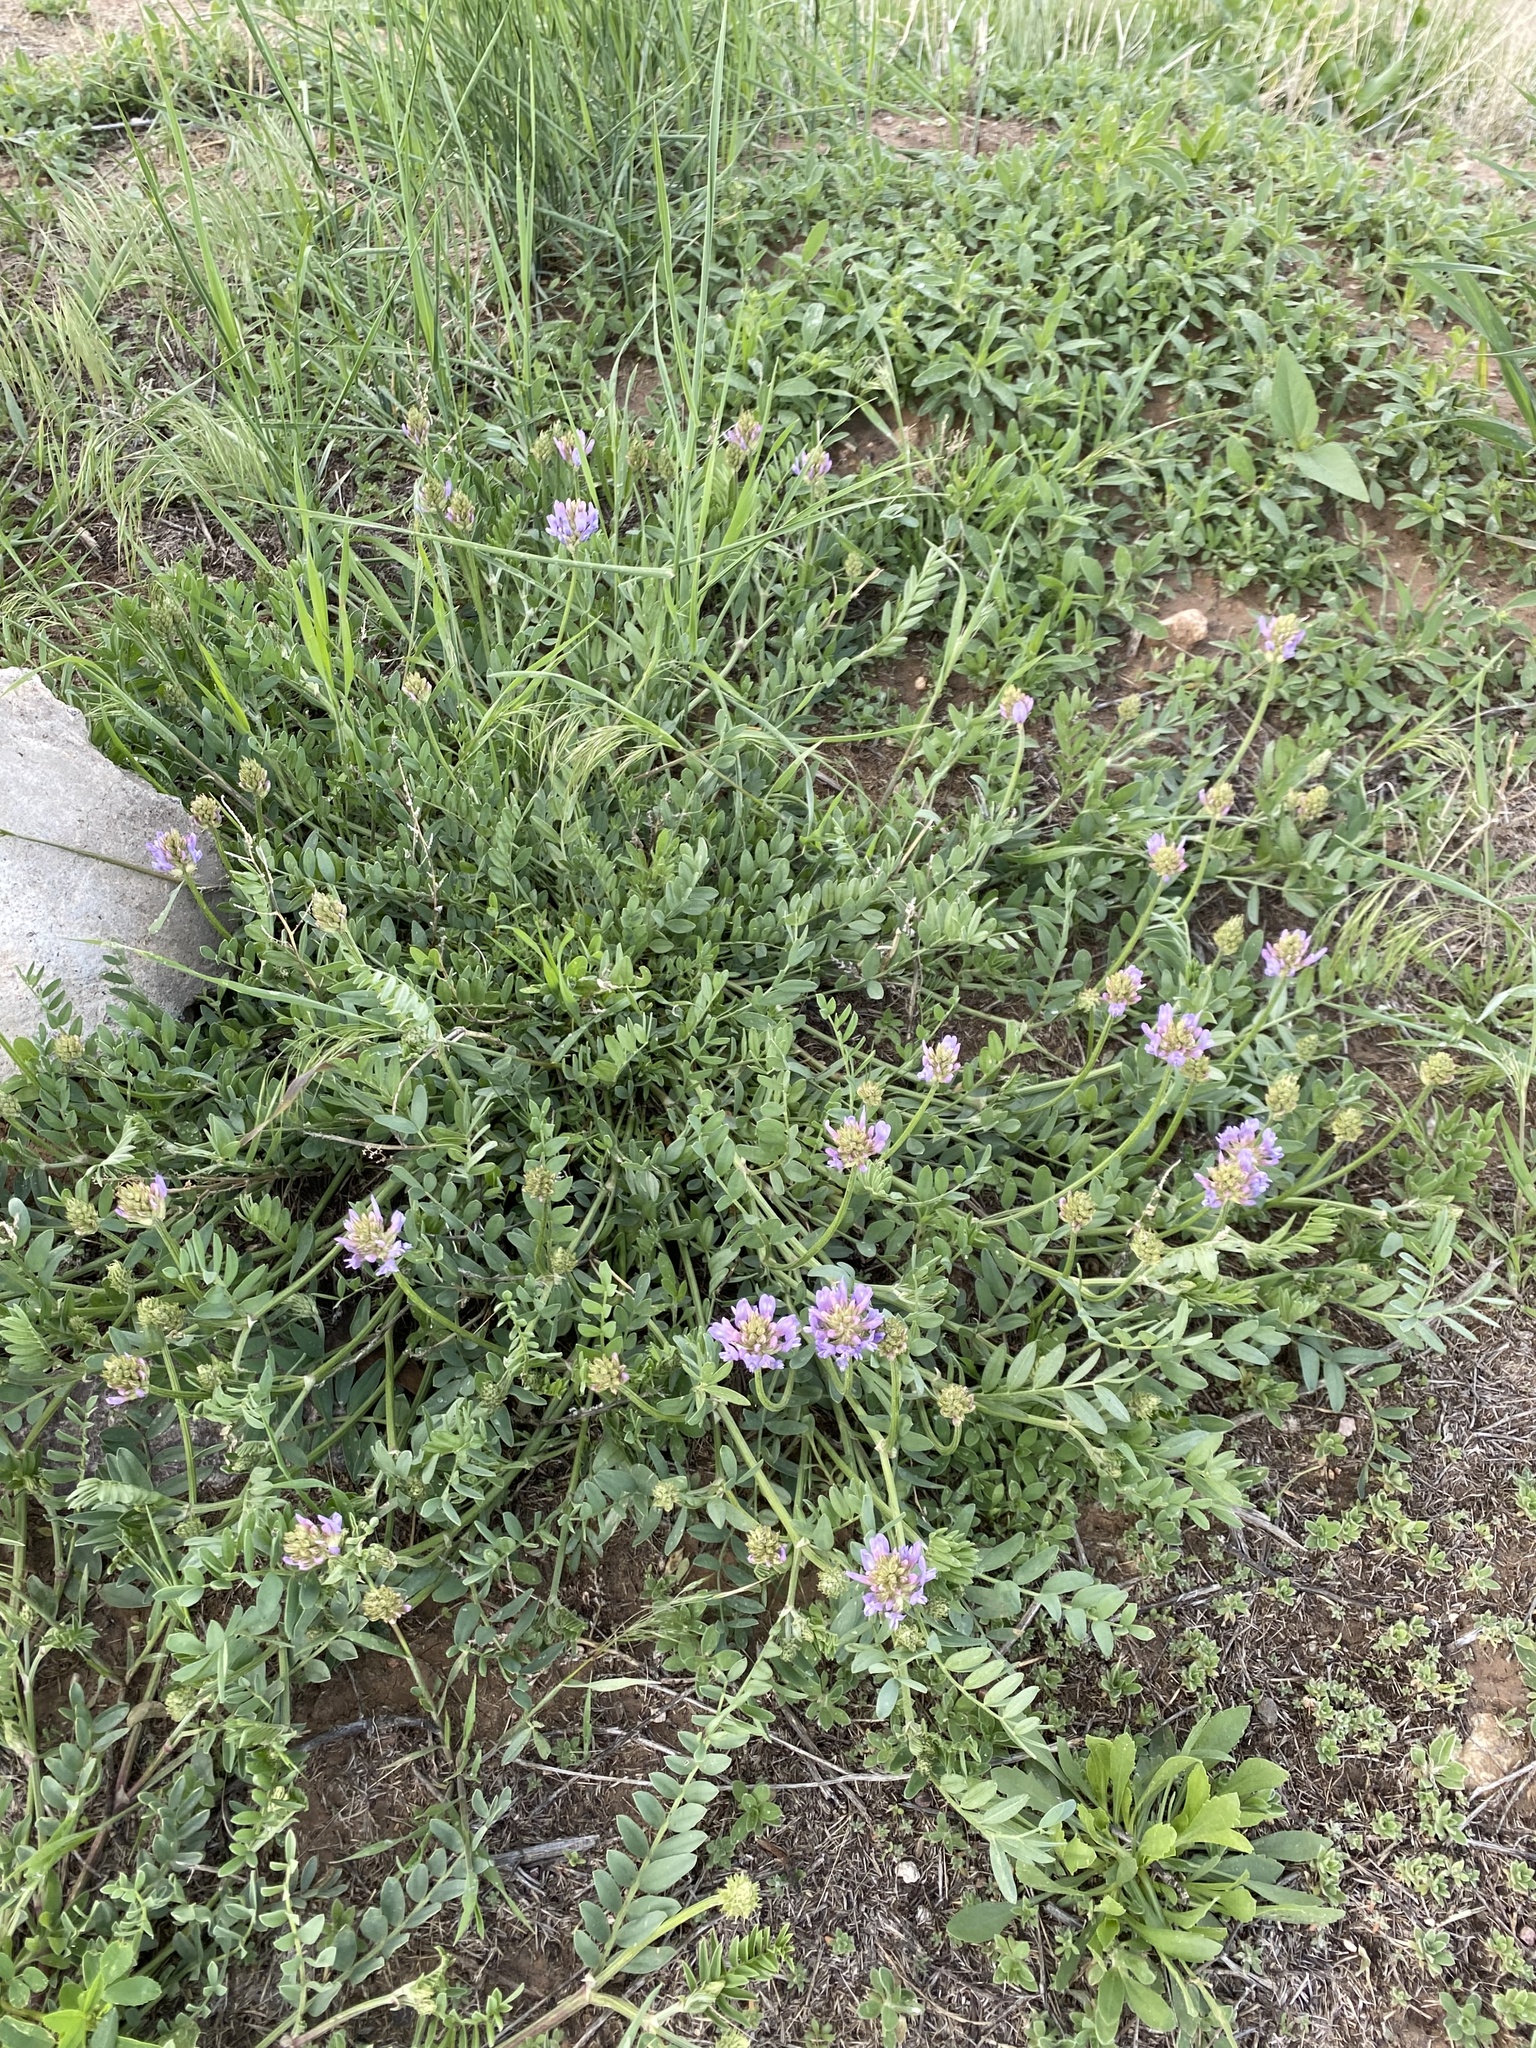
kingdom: Plantae
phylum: Tracheophyta
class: Magnoliopsida
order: Fabales
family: Fabaceae
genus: Astragalus
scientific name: Astragalus laxmannii
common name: Laxmann's milk-vetch
